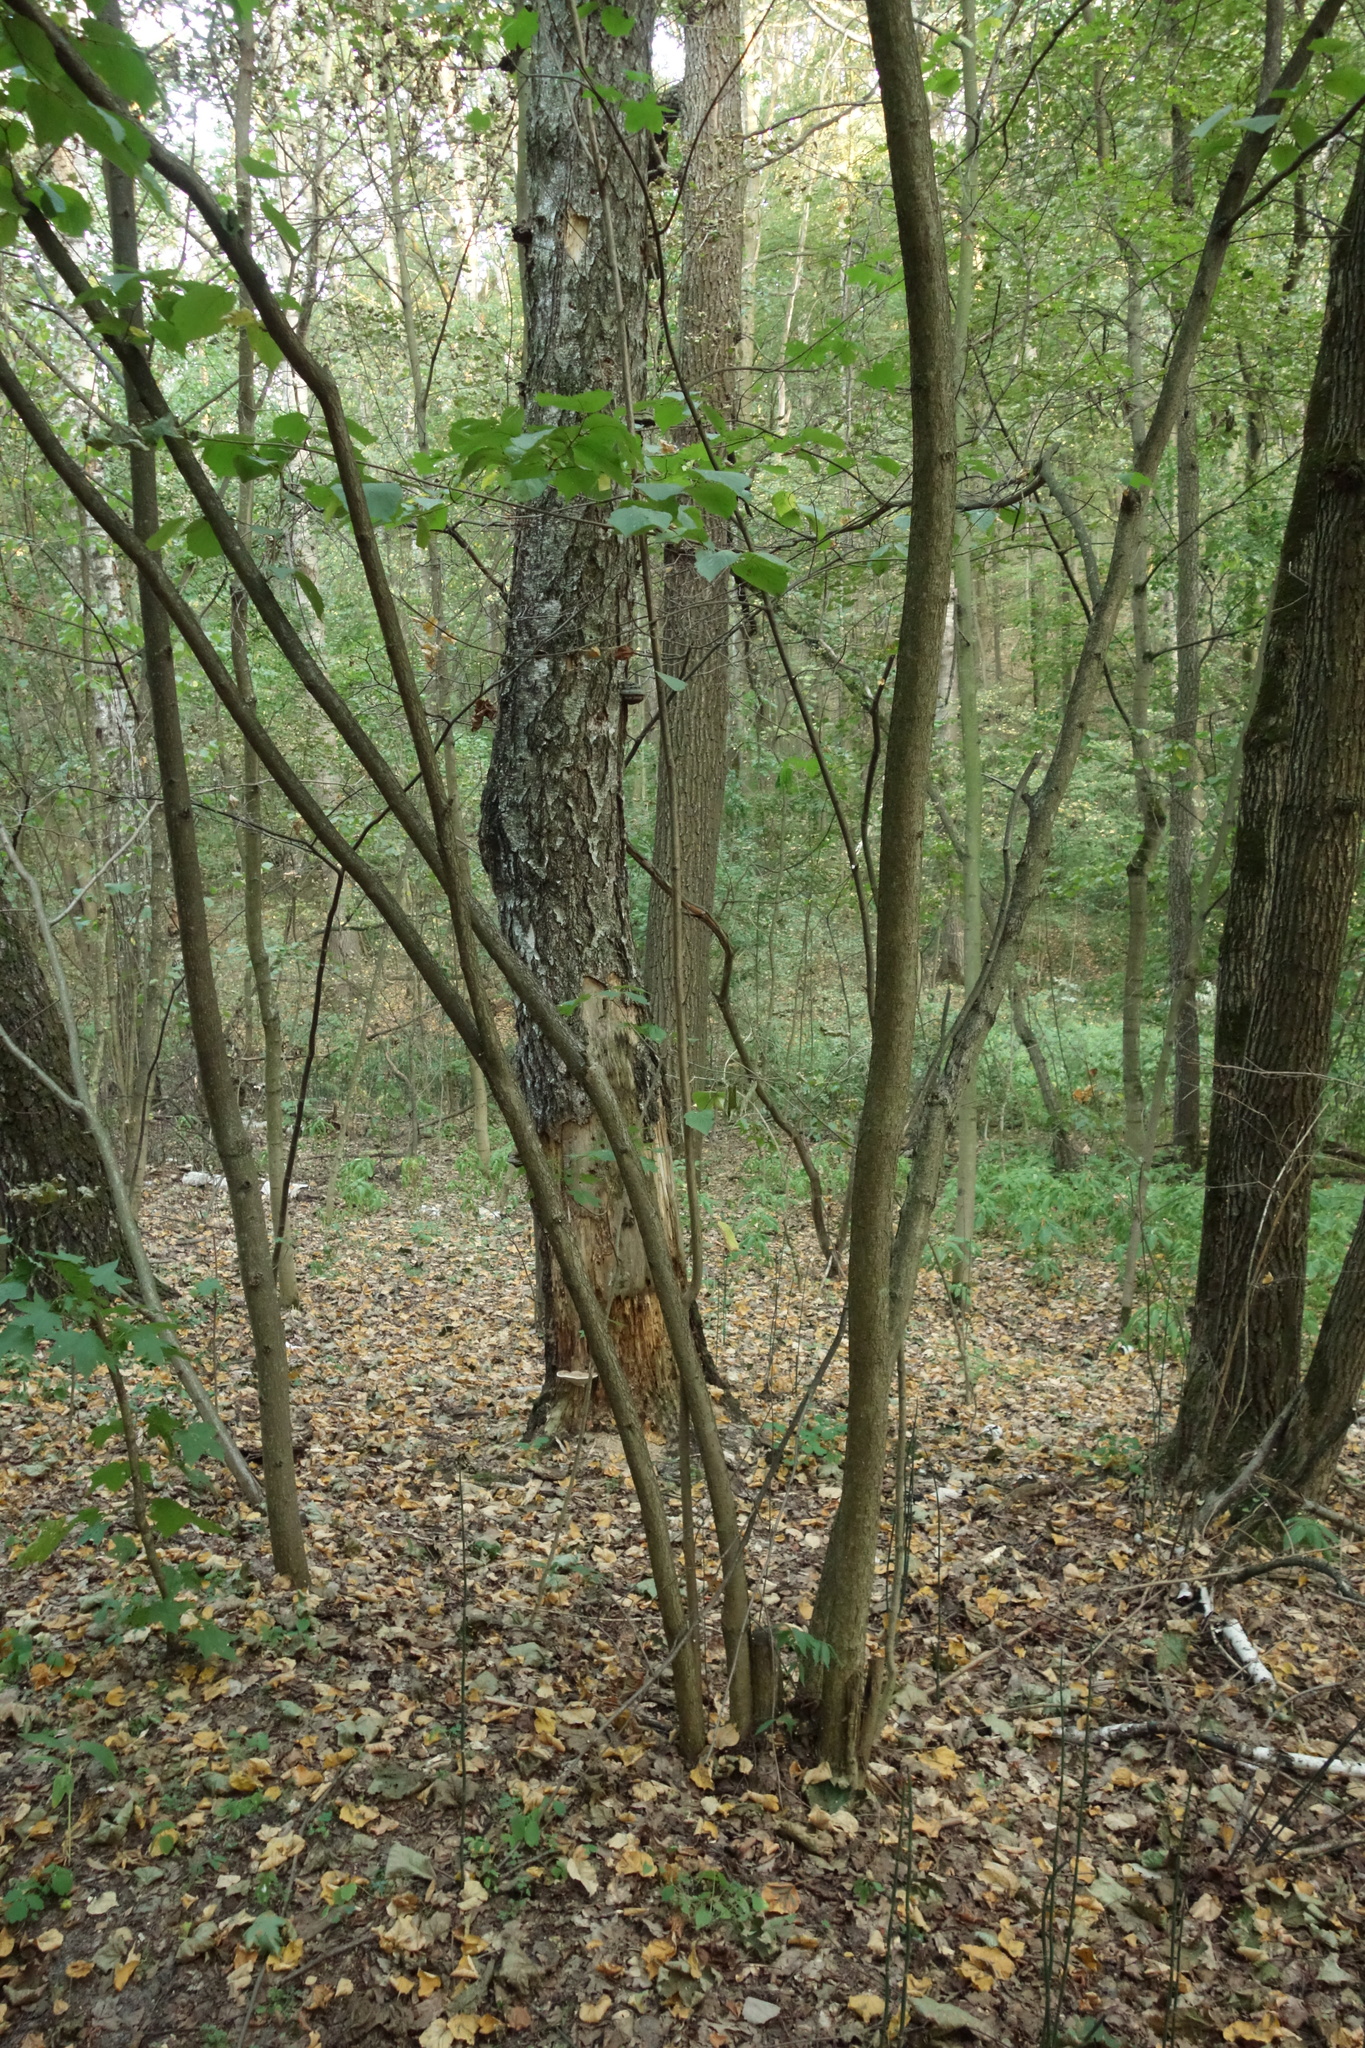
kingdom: Plantae
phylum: Tracheophyta
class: Magnoliopsida
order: Fagales
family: Betulaceae
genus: Corylus
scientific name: Corylus avellana
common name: European hazel
